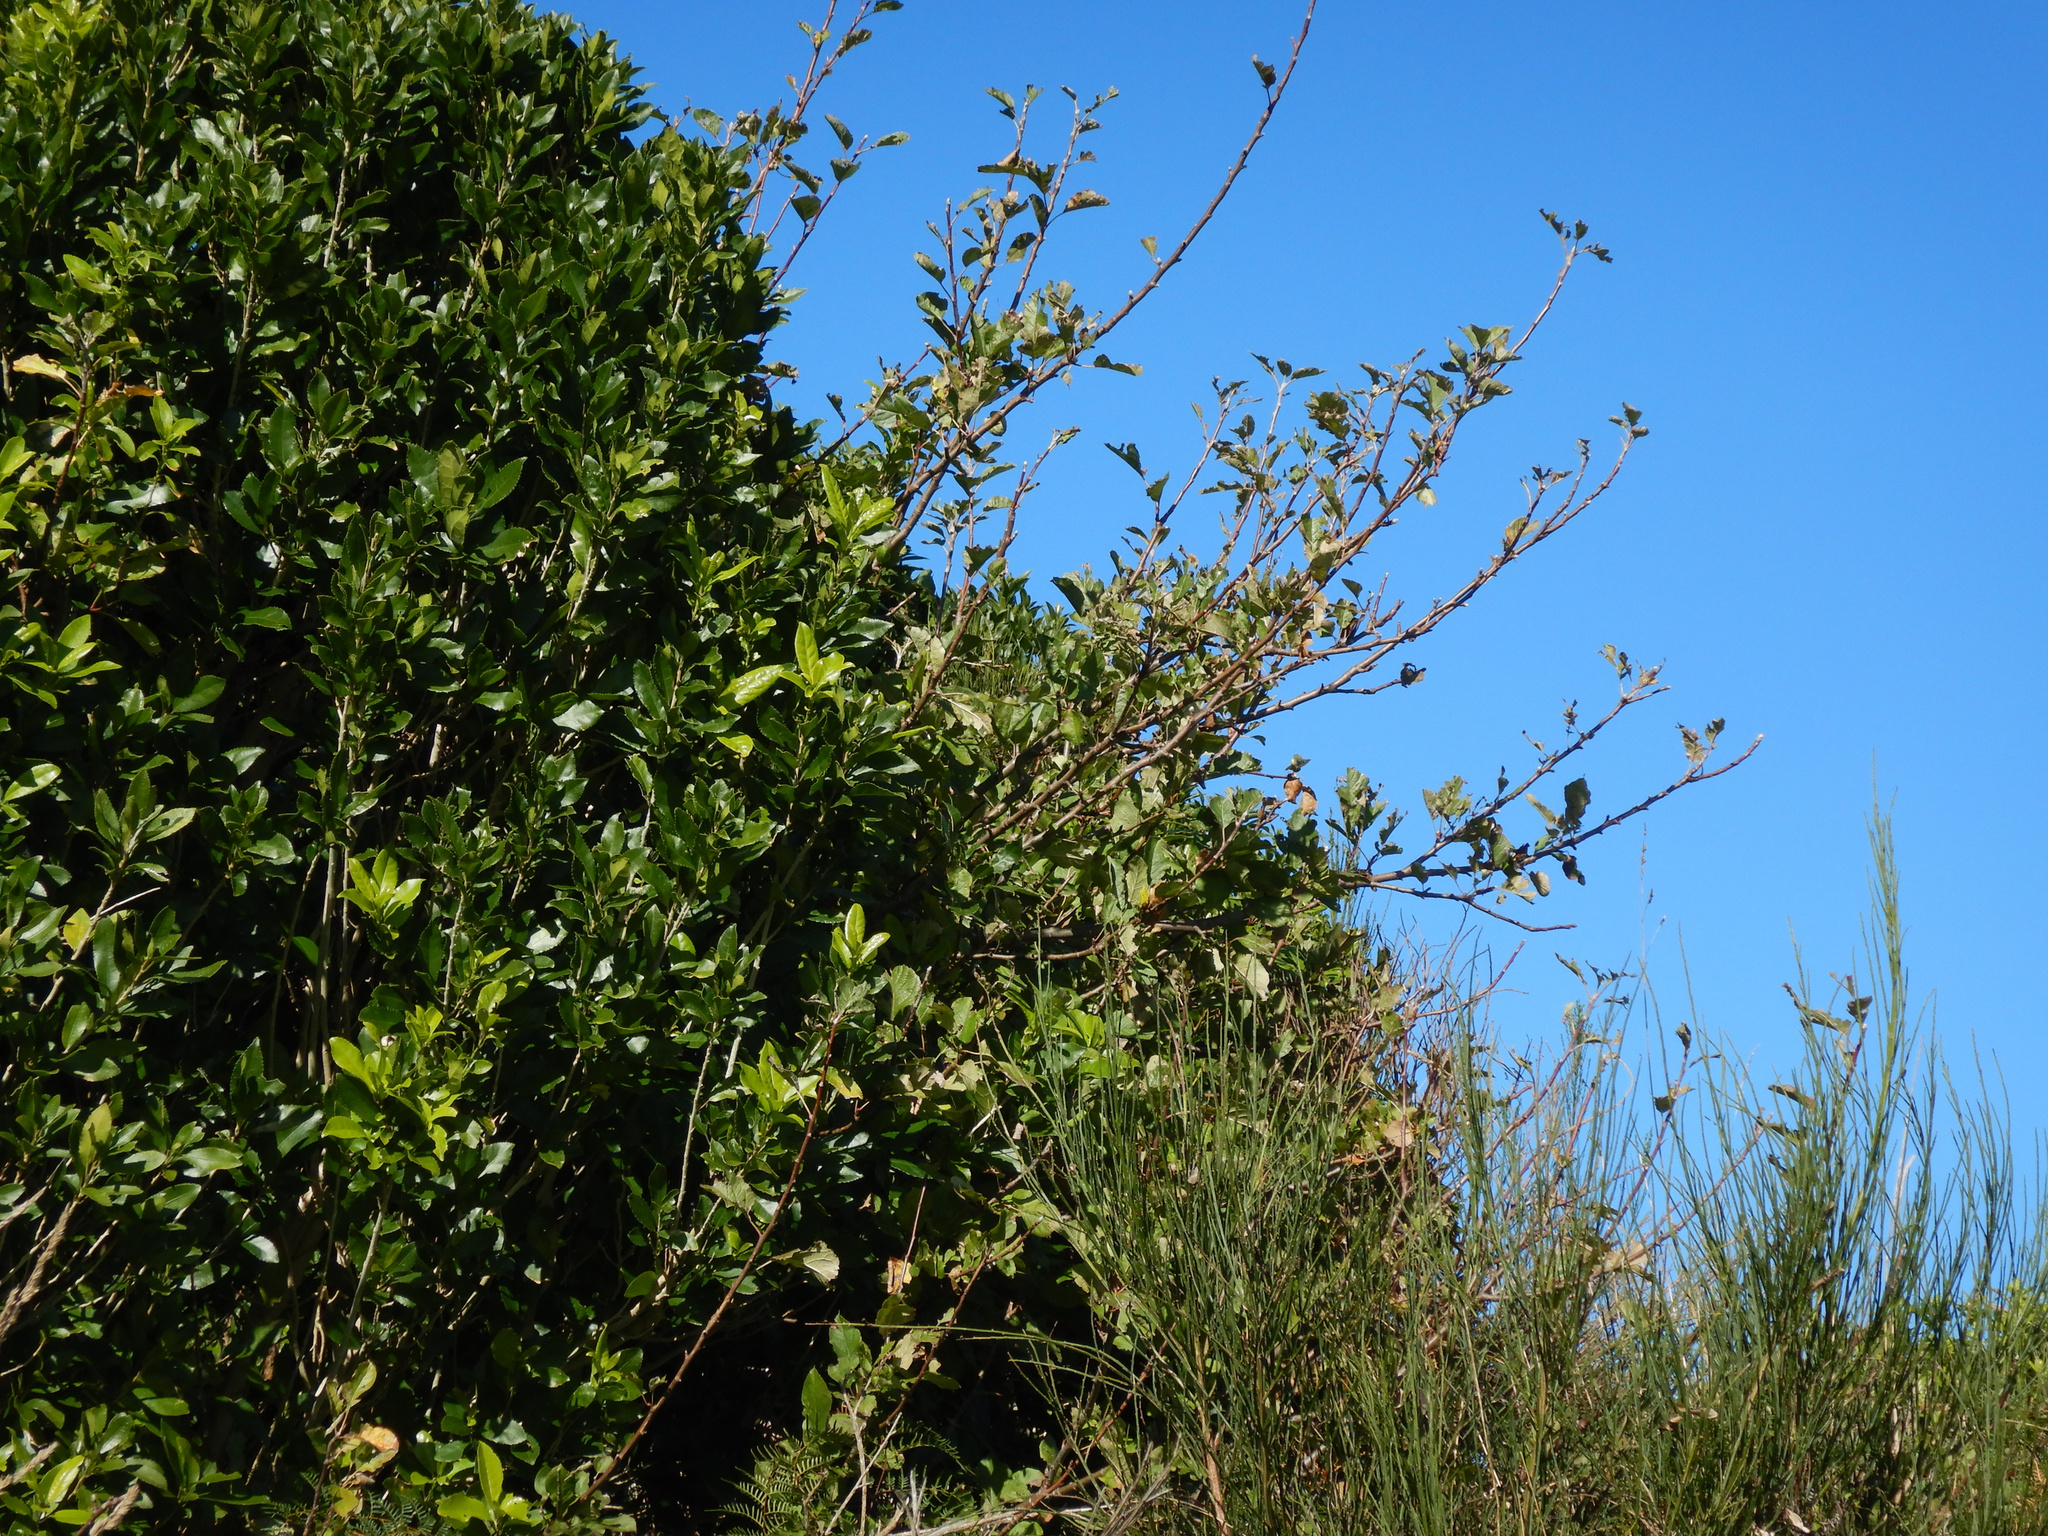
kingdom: Plantae
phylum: Tracheophyta
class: Magnoliopsida
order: Rosales
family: Rosaceae
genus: Malus
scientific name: Malus domestica
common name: Apple
